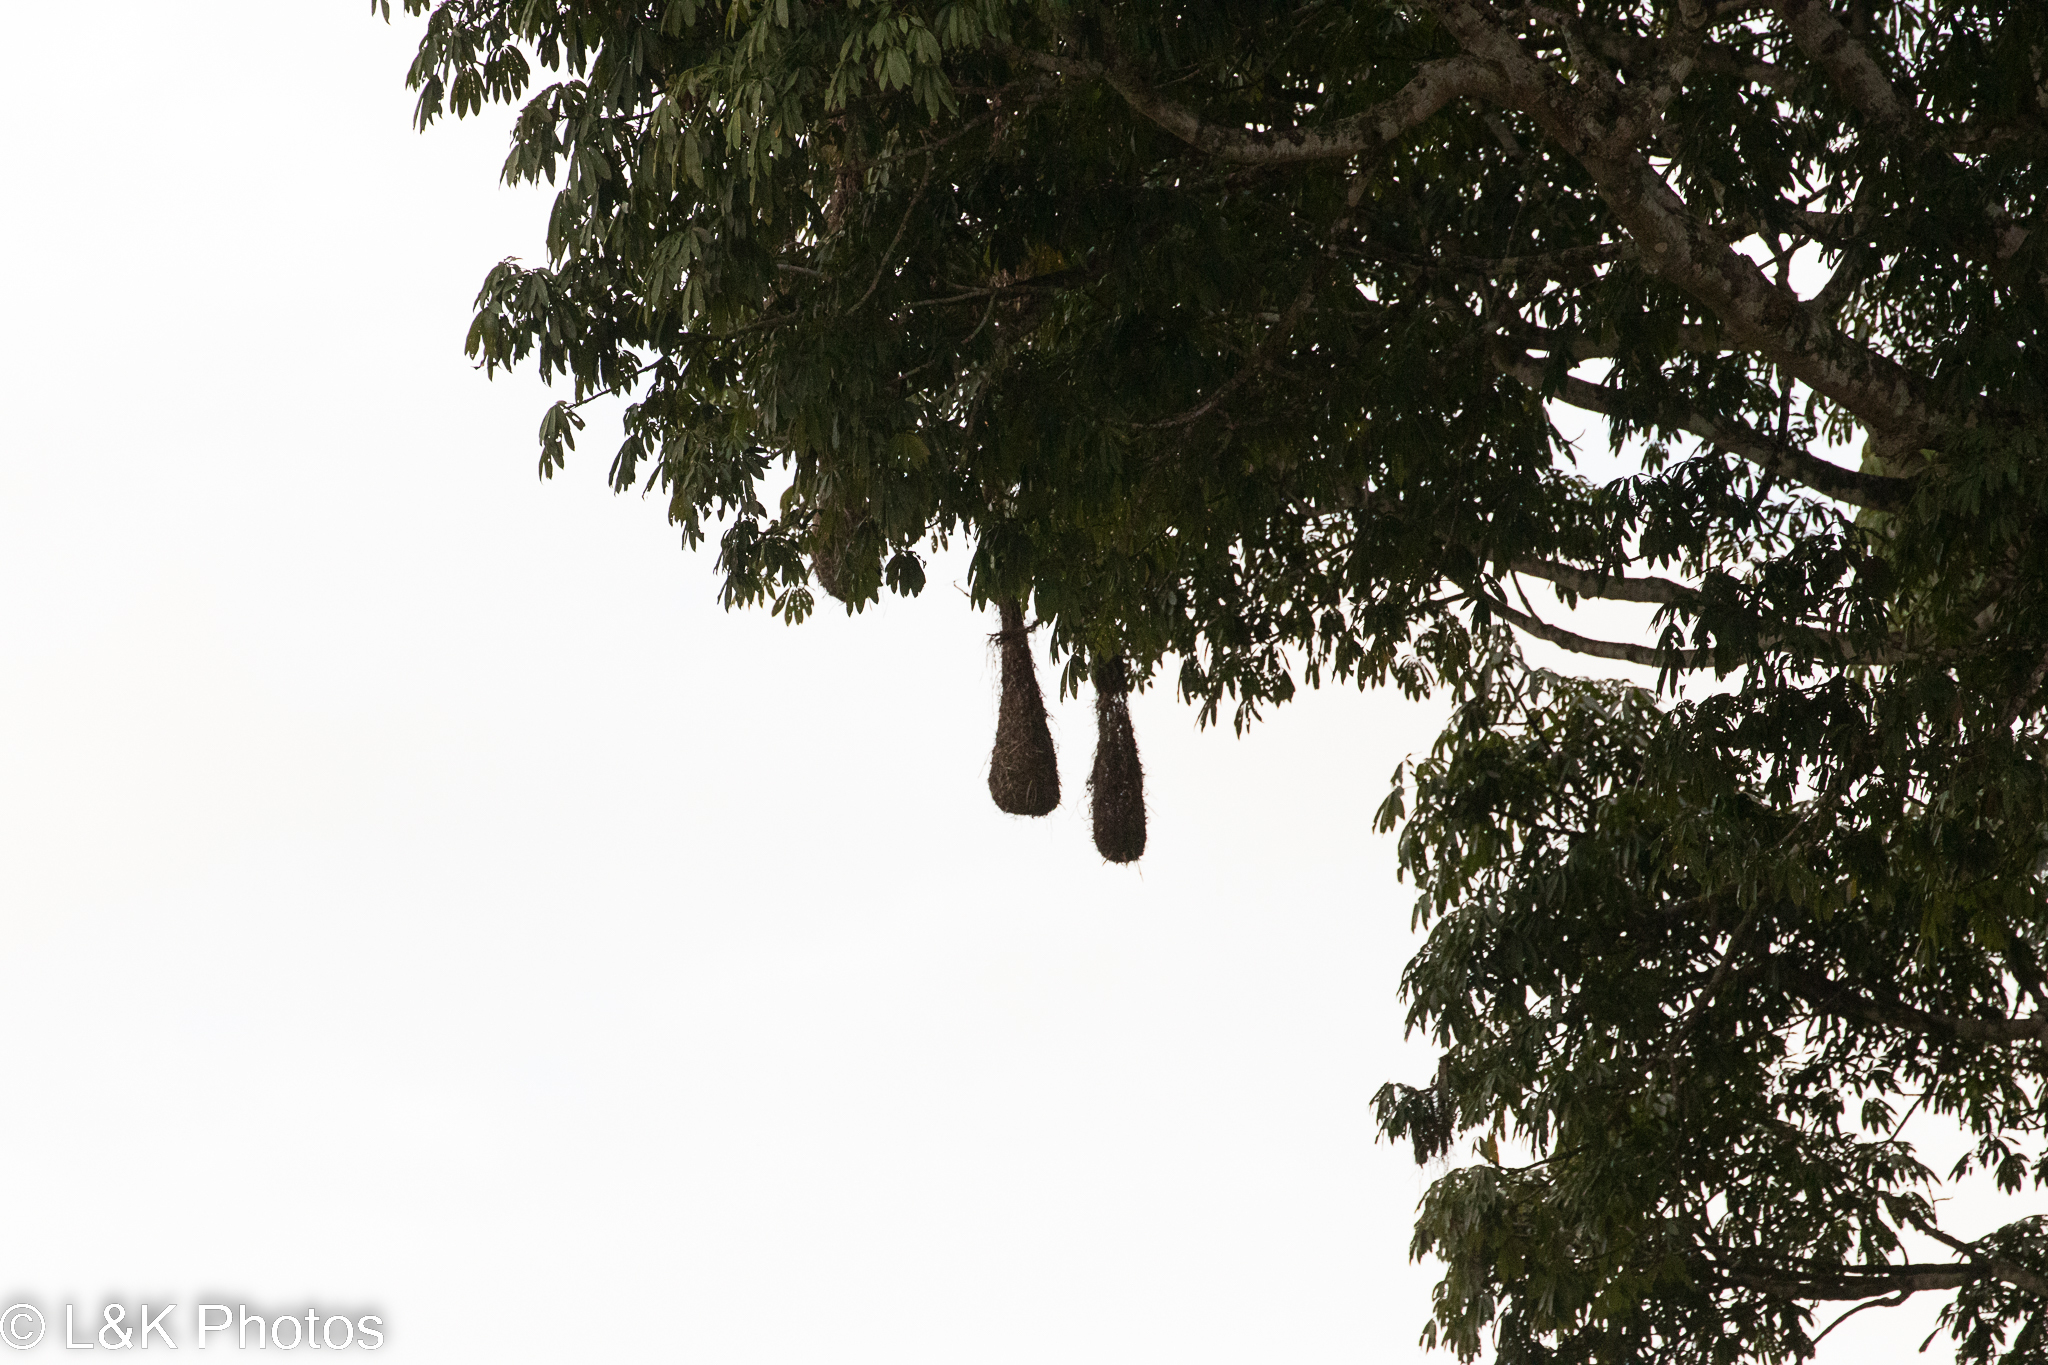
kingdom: Animalia
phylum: Chordata
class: Aves
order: Passeriformes
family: Icteridae
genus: Psarocolius
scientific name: Psarocolius montezuma
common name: Montezuma oropendola
